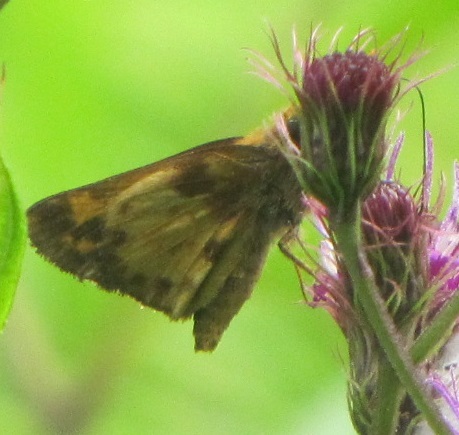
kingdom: Animalia
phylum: Arthropoda
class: Insecta
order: Lepidoptera
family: Hesperiidae
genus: Lon
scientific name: Lon zabulon
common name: Zabulon skipper
